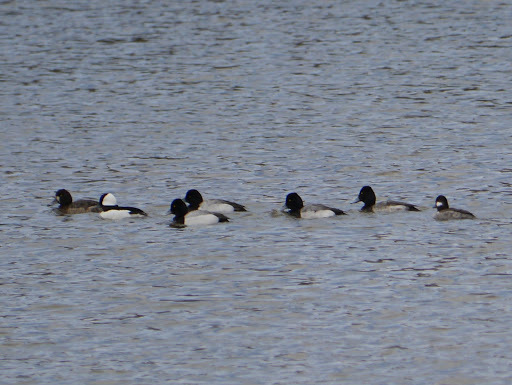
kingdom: Animalia
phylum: Chordata
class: Aves
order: Anseriformes
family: Anatidae
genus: Aythya
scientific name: Aythya affinis
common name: Lesser scaup
